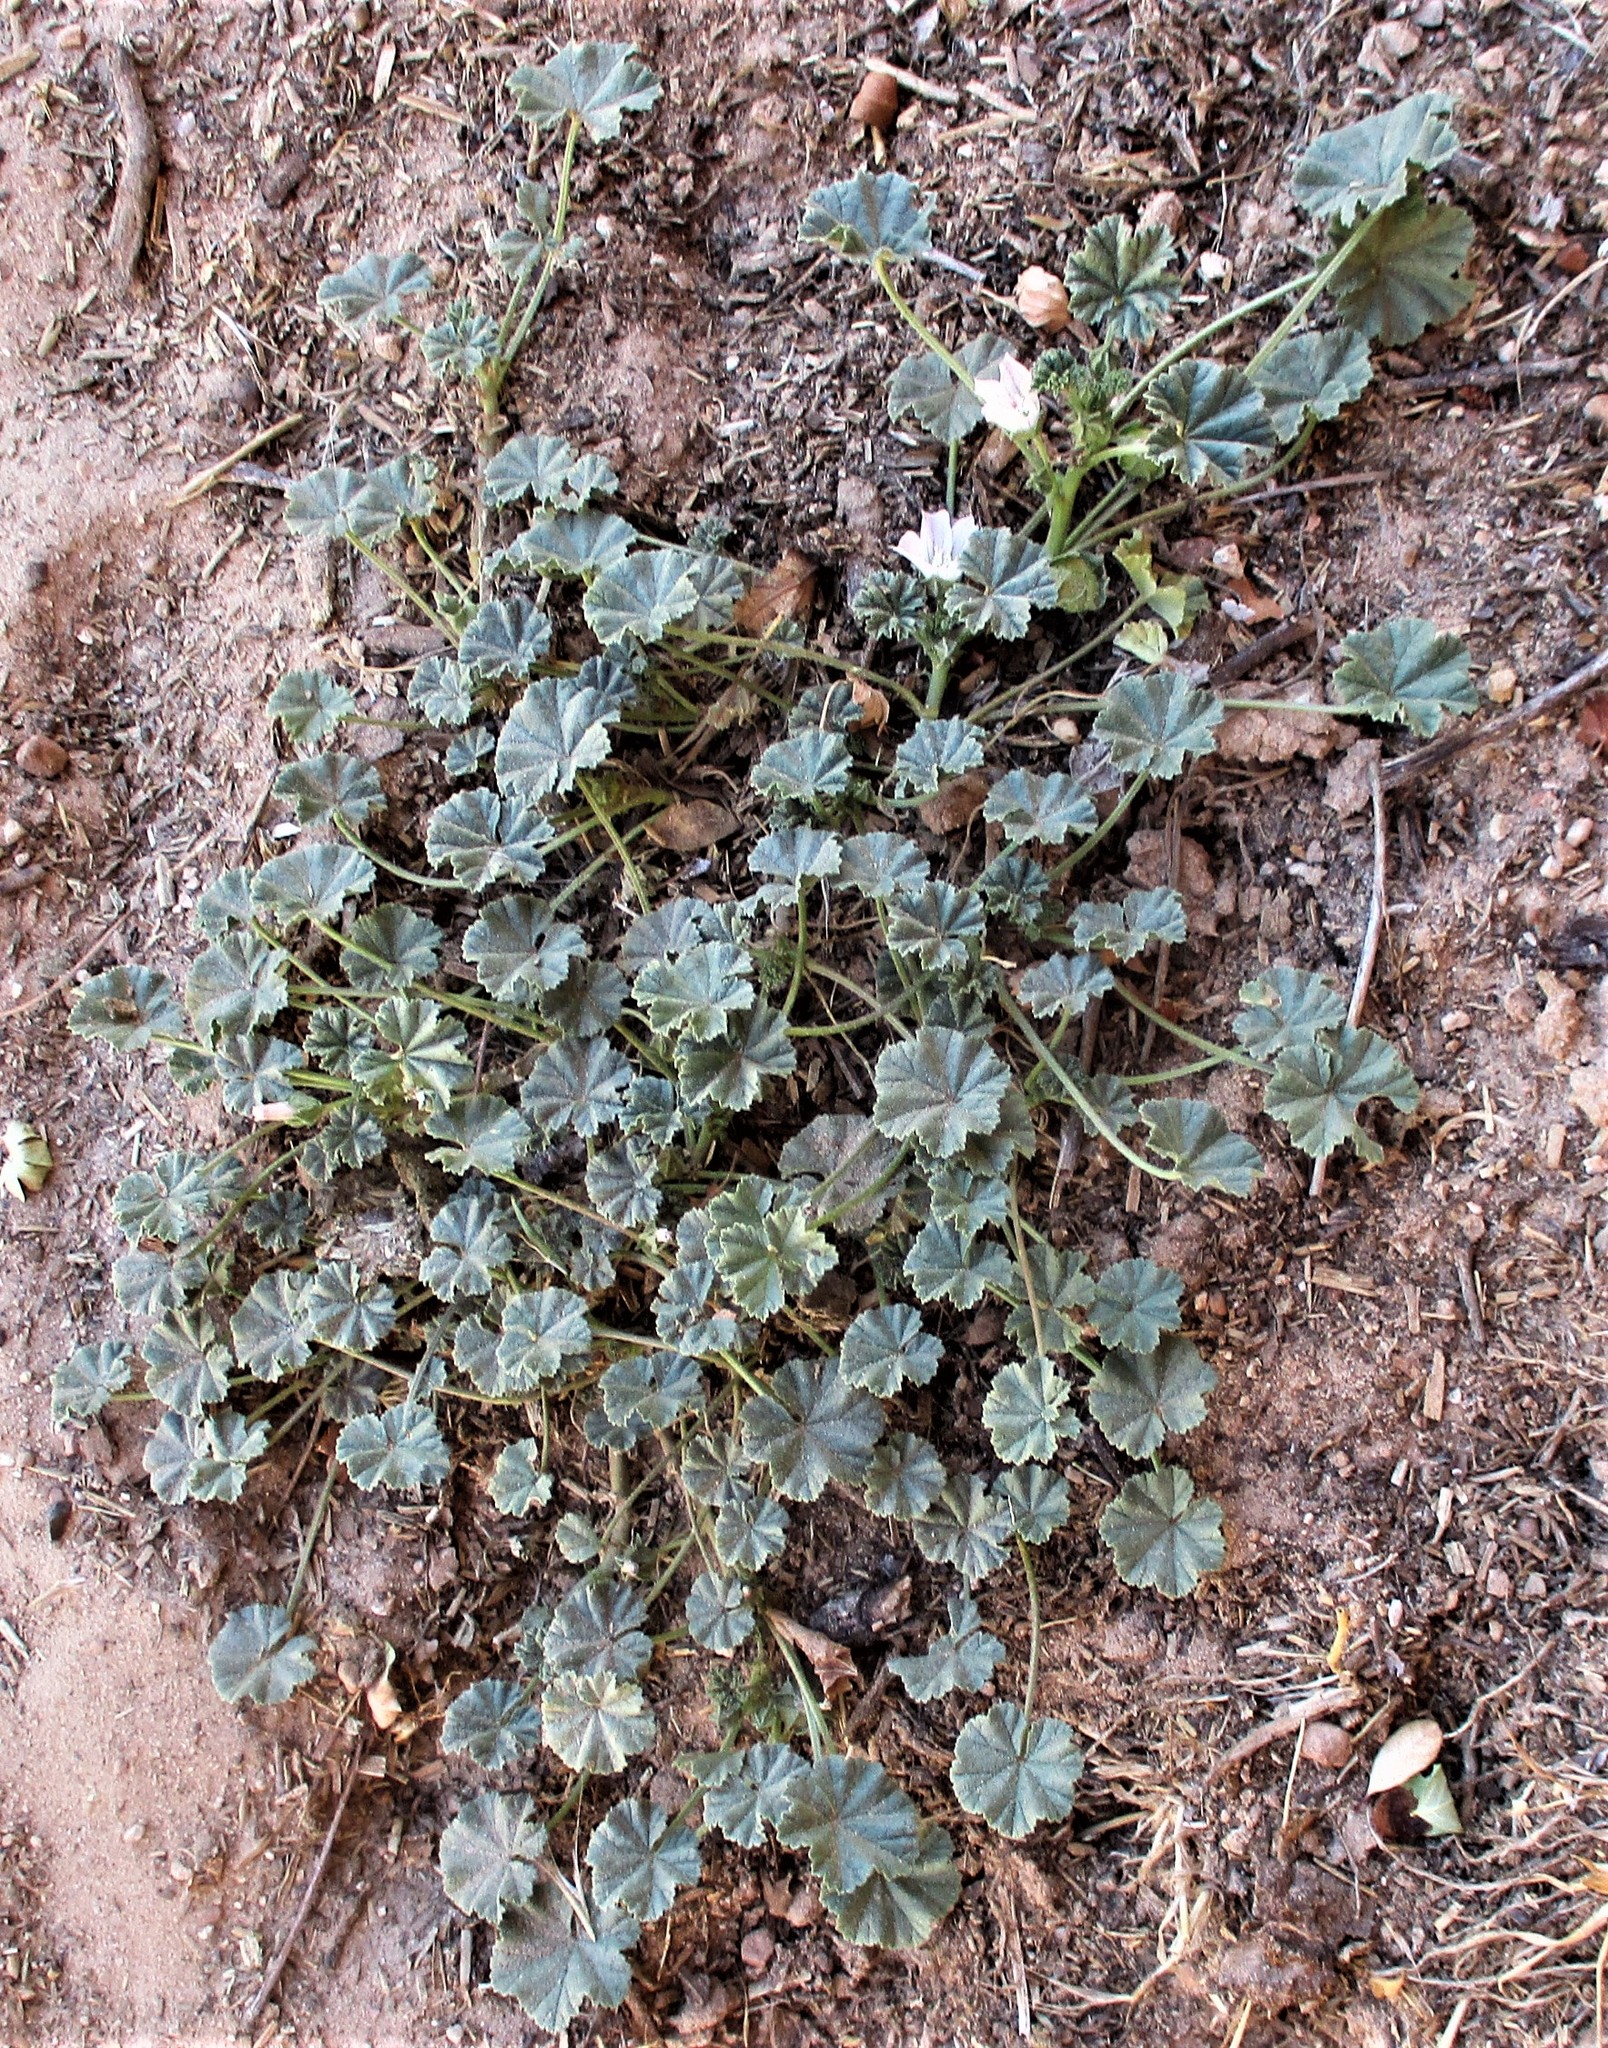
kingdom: Plantae
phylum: Tracheophyta
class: Magnoliopsida
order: Malvales
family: Malvaceae
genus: Malva
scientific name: Malva neglecta
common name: Common mallow
